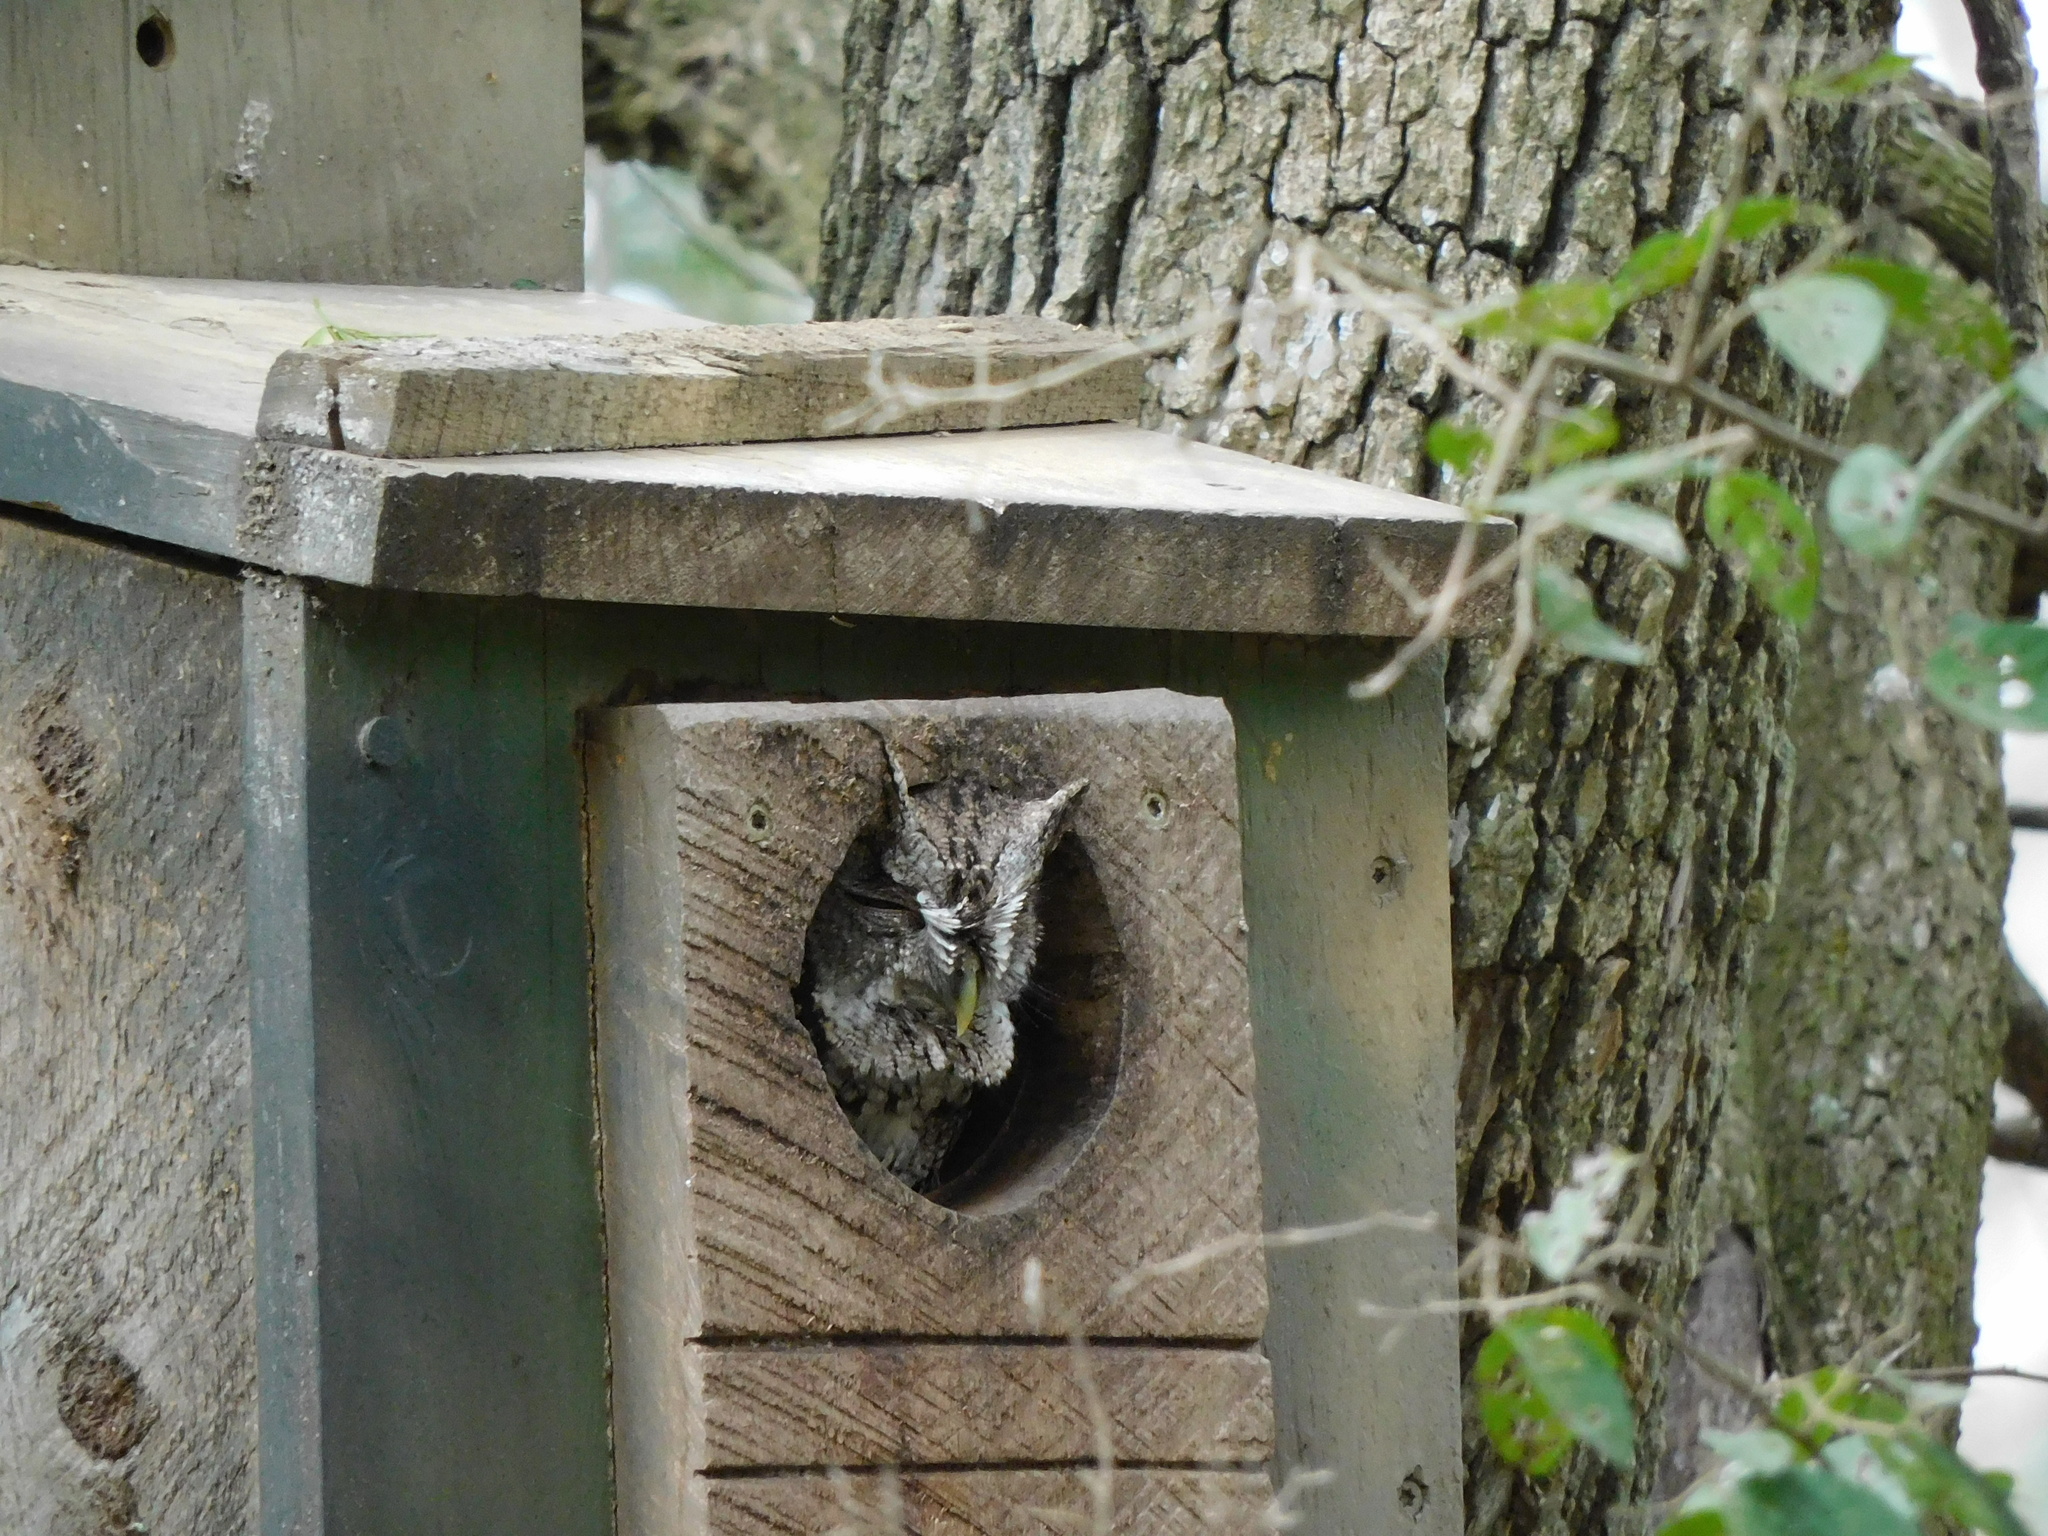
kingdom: Animalia
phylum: Chordata
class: Aves
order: Strigiformes
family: Strigidae
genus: Megascops
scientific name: Megascops asio
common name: Eastern screech-owl
